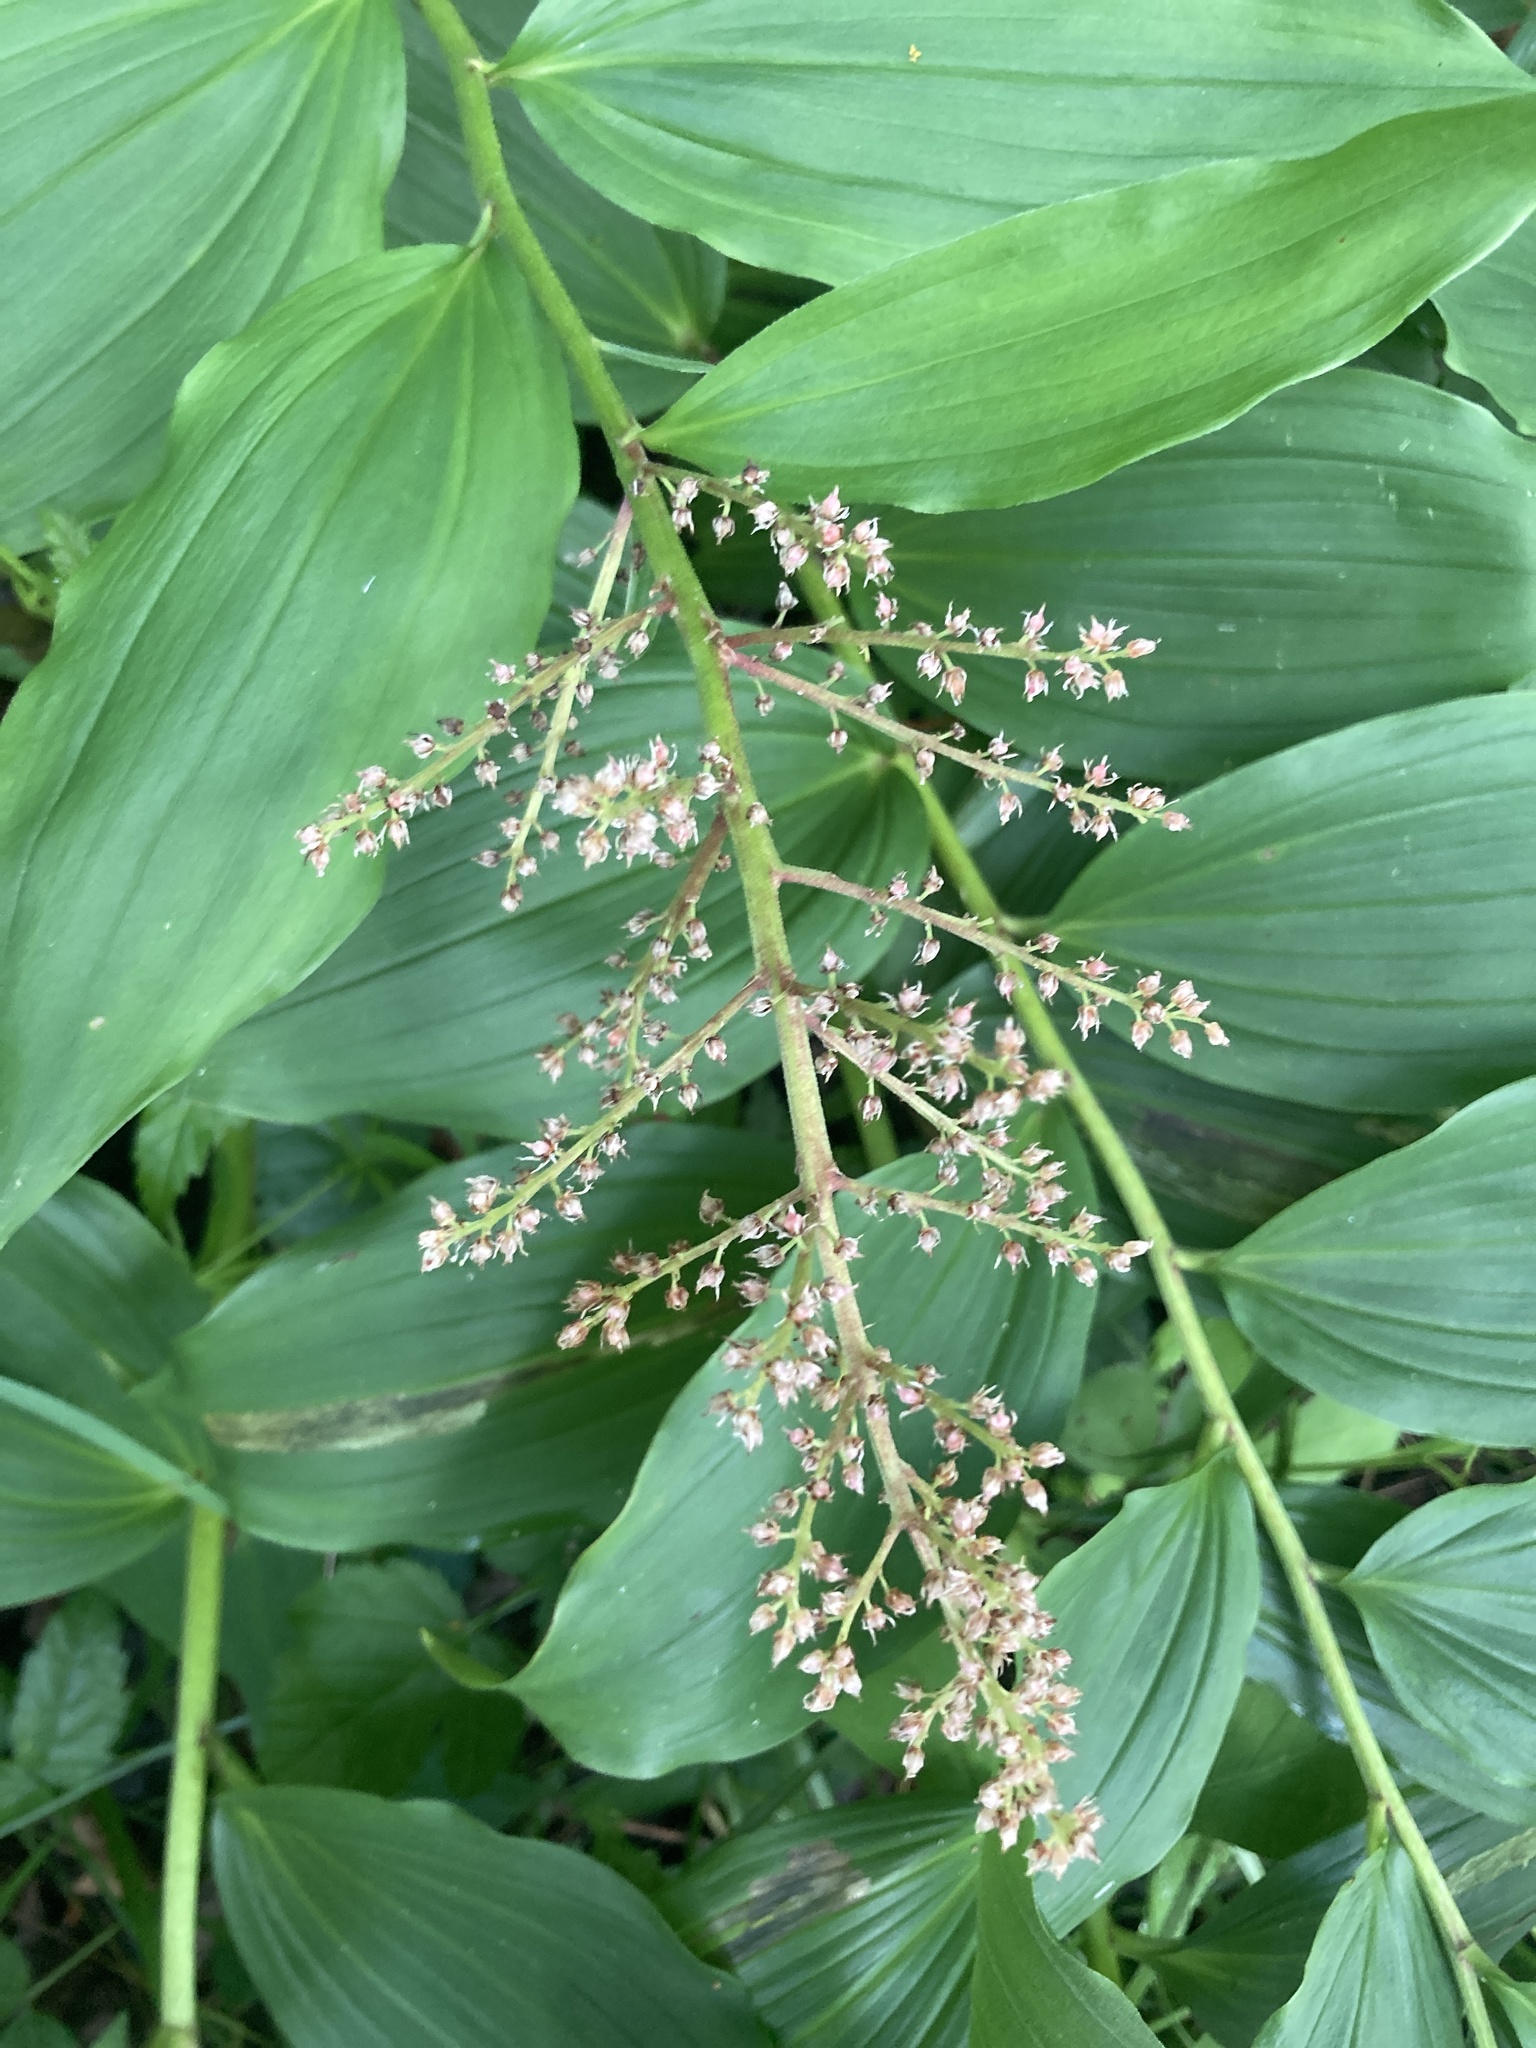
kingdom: Plantae
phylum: Tracheophyta
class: Liliopsida
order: Asparagales
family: Asparagaceae
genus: Maianthemum
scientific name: Maianthemum racemosum
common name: False spikenard
